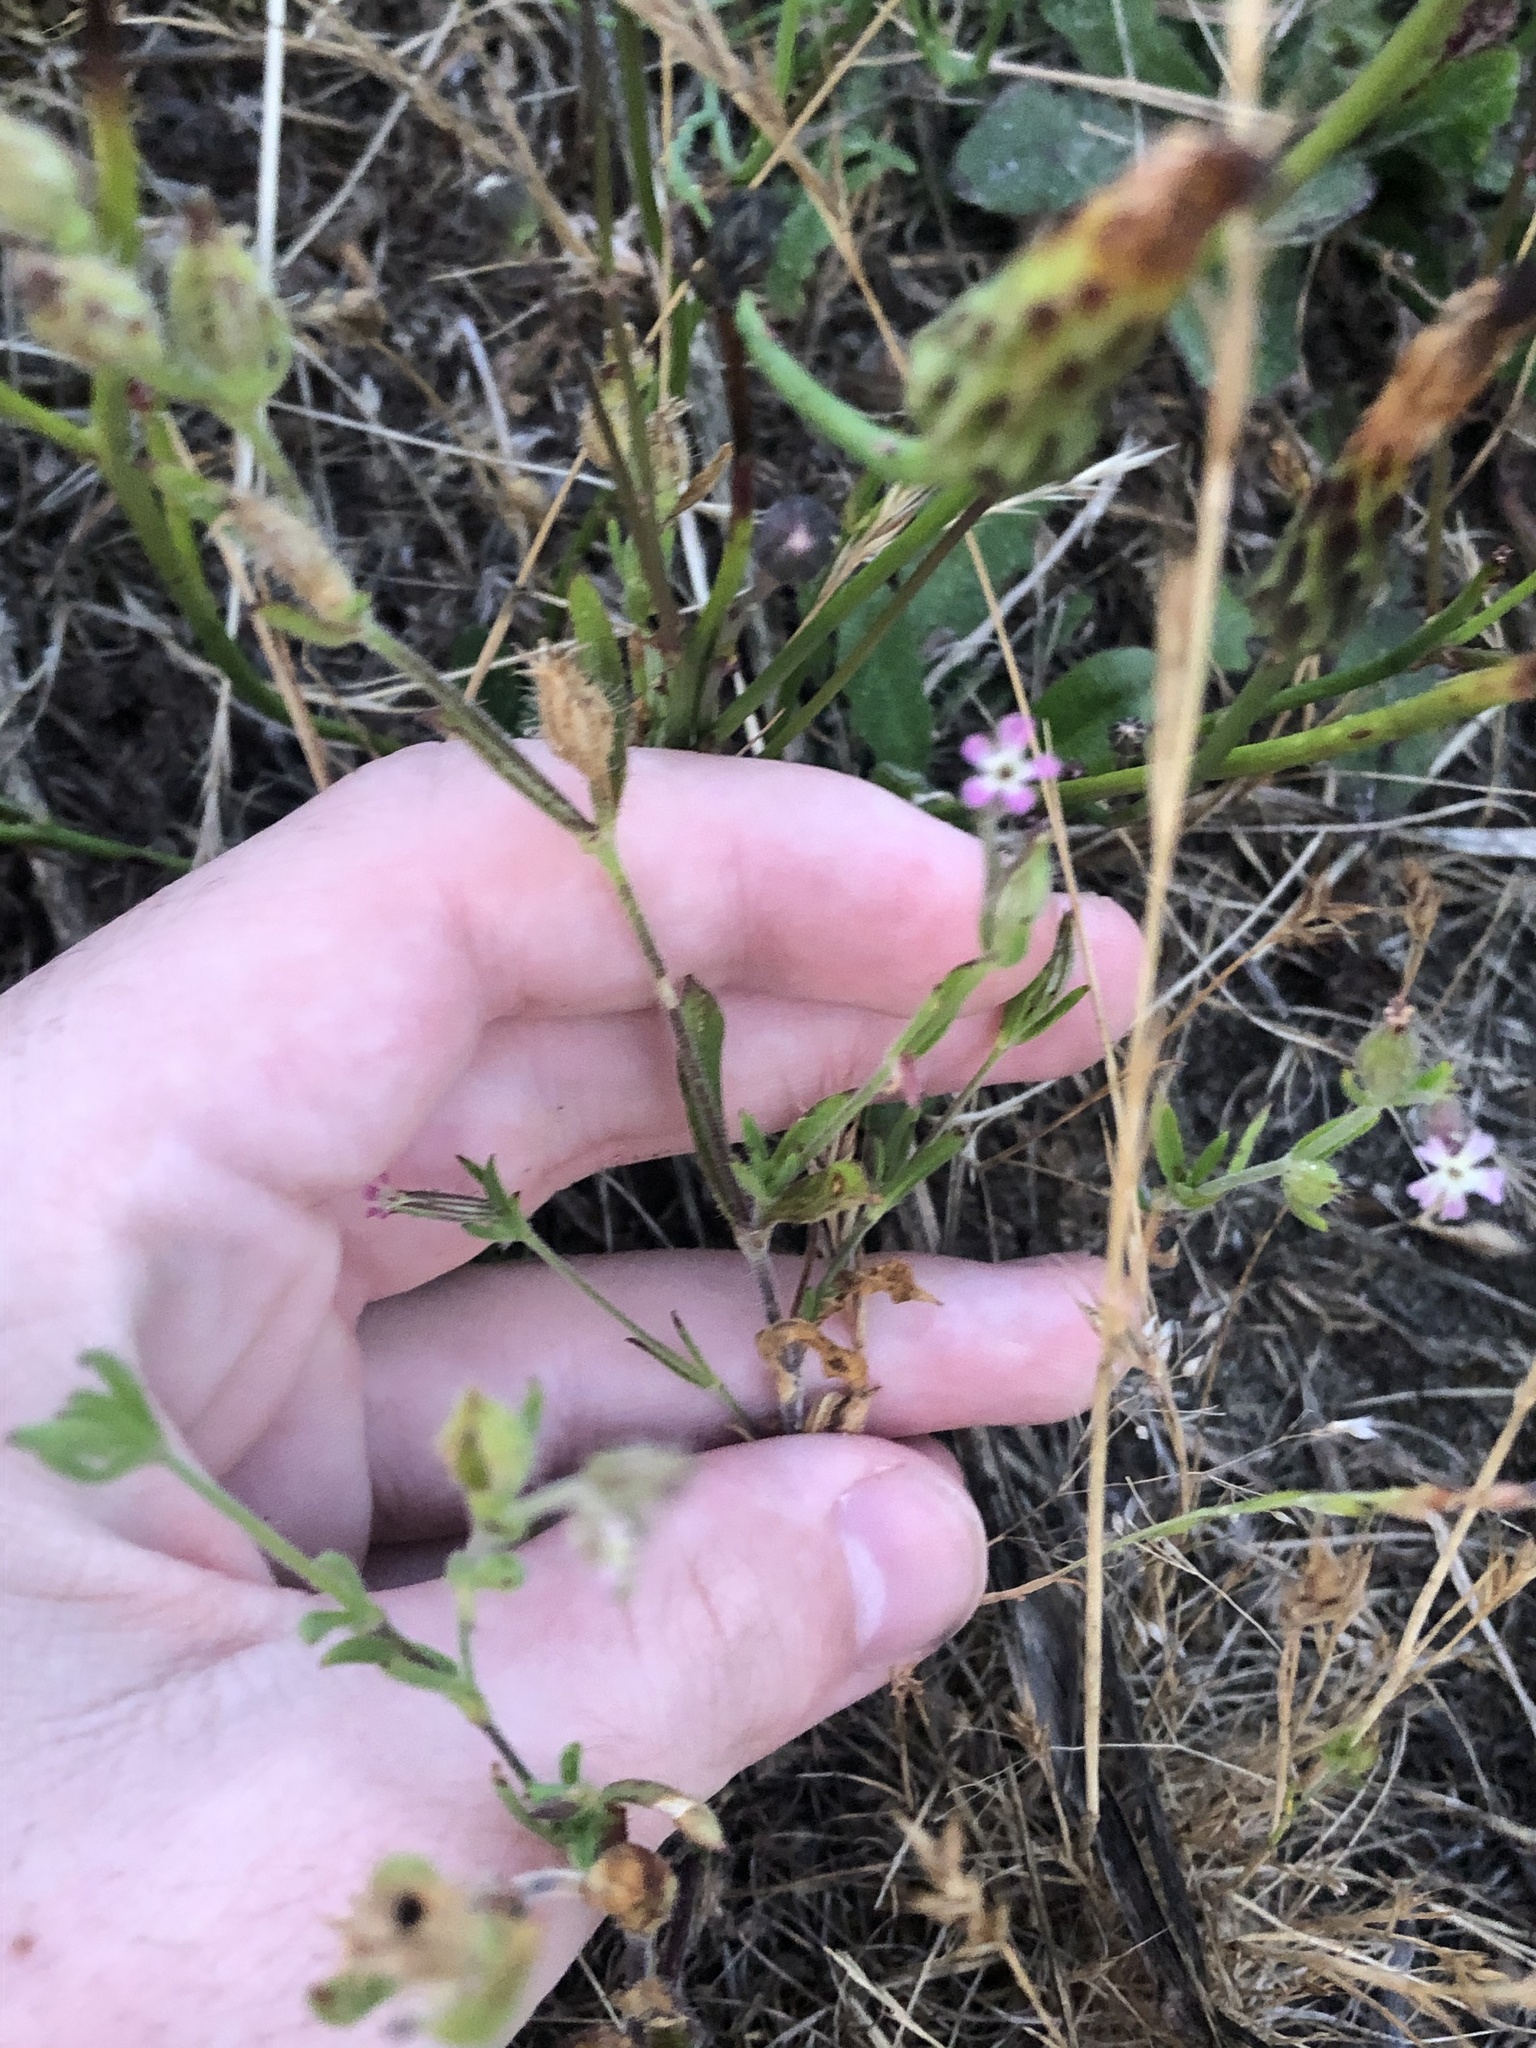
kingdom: Plantae
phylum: Tracheophyta
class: Magnoliopsida
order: Caryophyllales
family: Caryophyllaceae
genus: Silene
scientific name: Silene gallica
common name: Small-flowered catchfly
